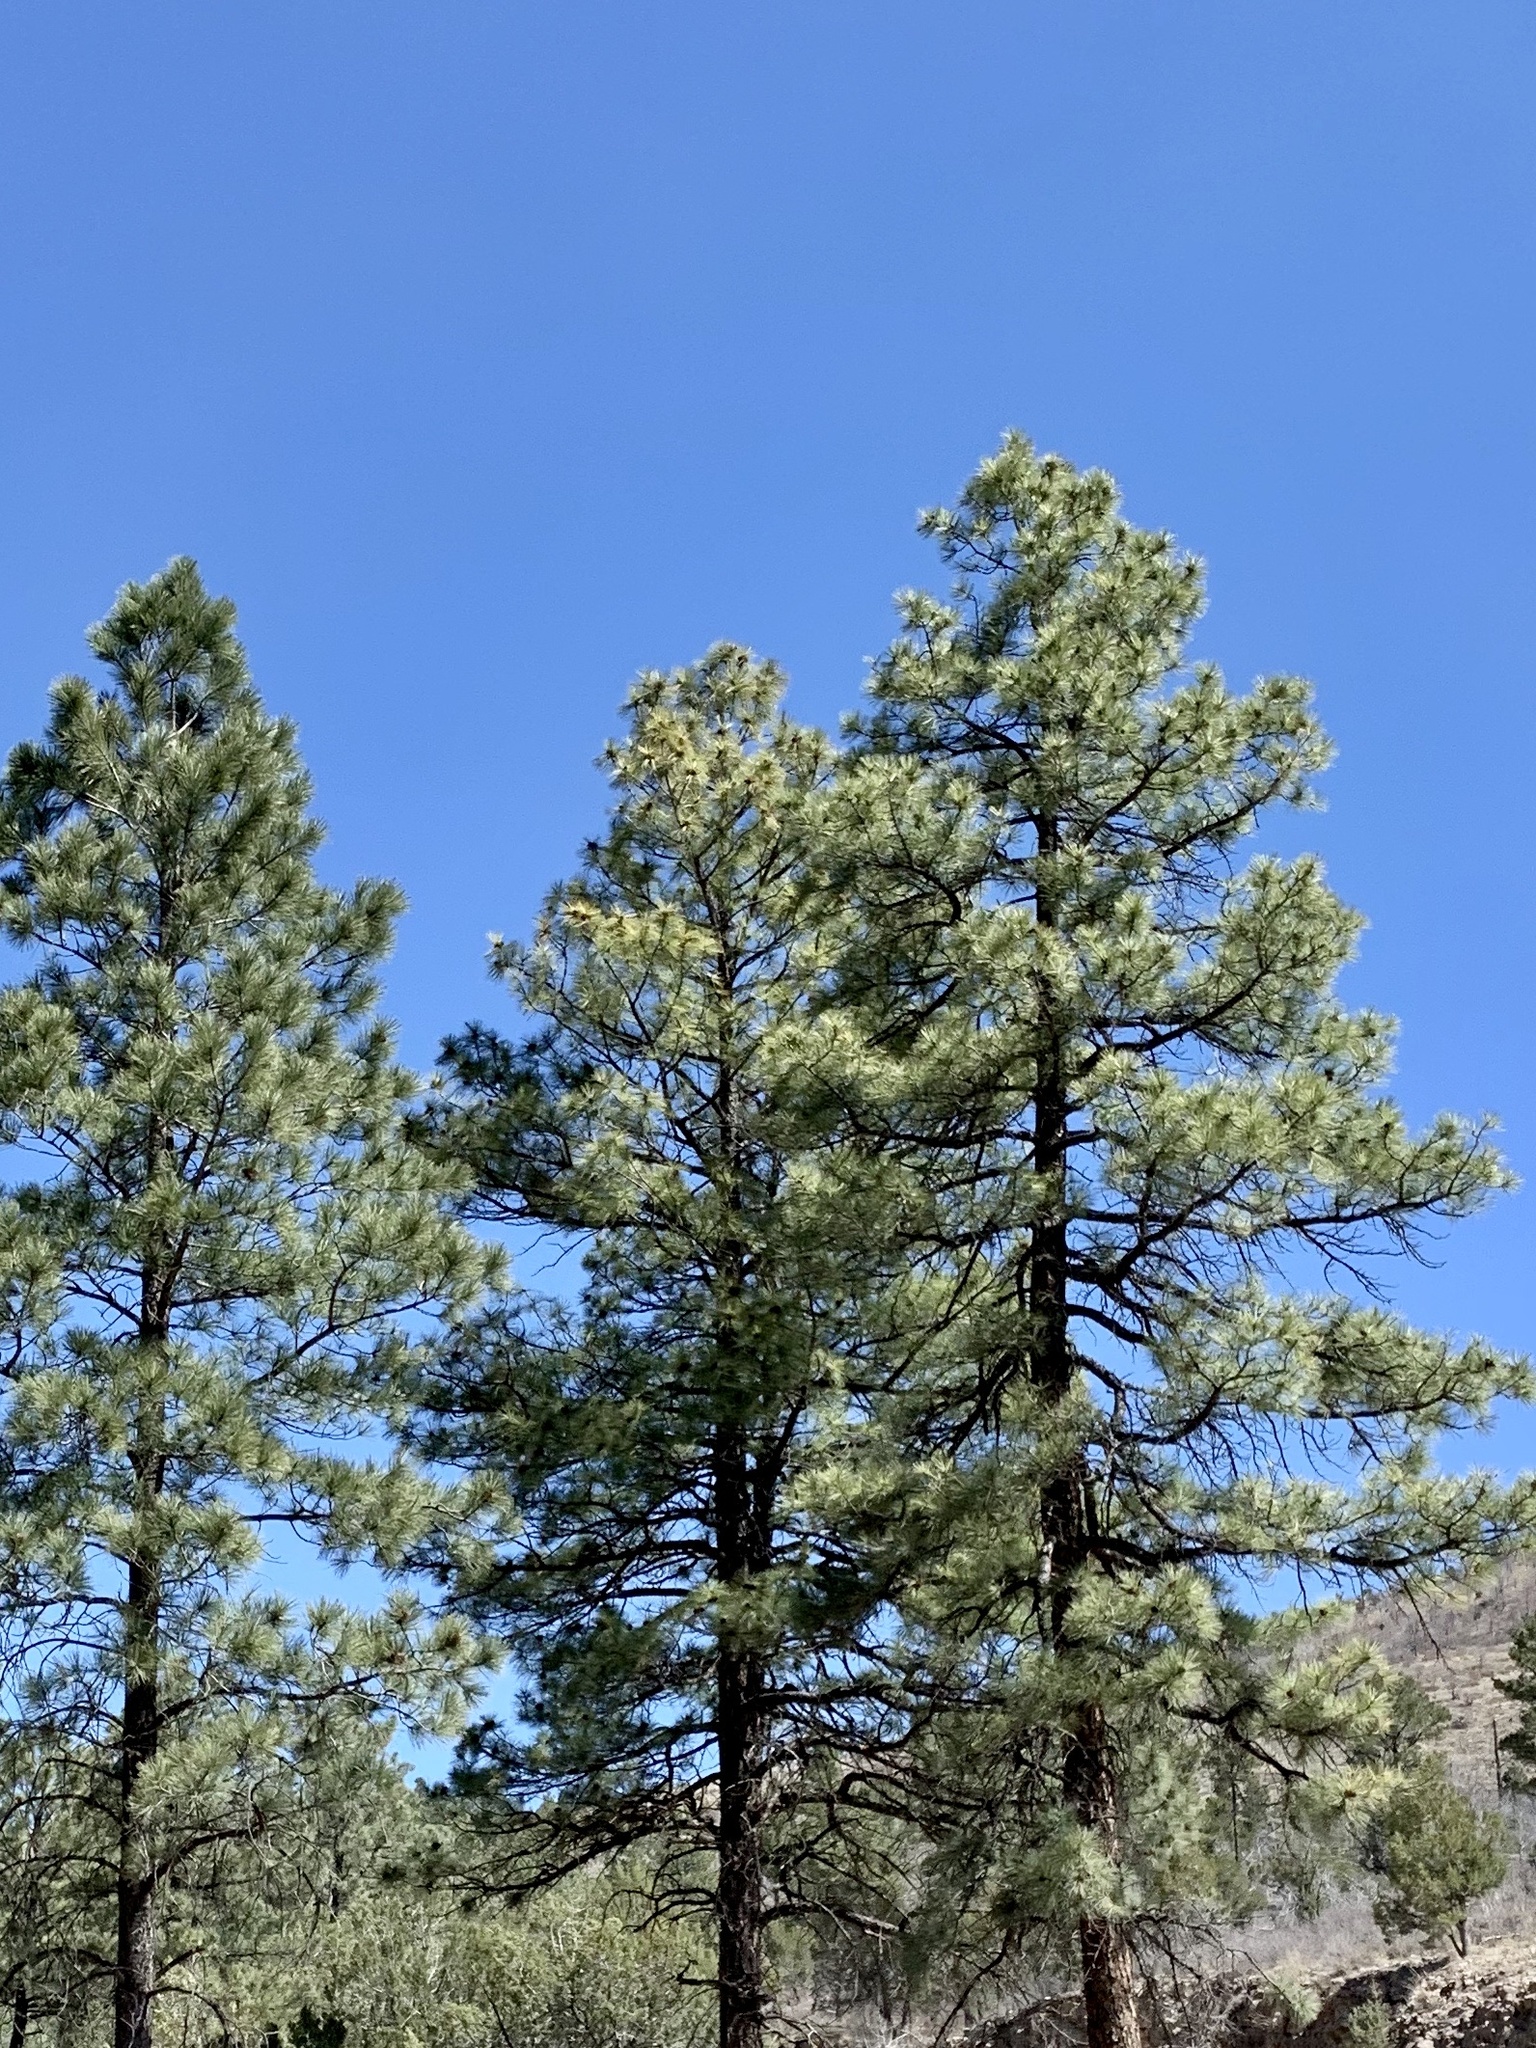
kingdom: Plantae
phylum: Tracheophyta
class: Pinopsida
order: Pinales
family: Pinaceae
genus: Pinus
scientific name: Pinus ponderosa
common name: Western yellow-pine
